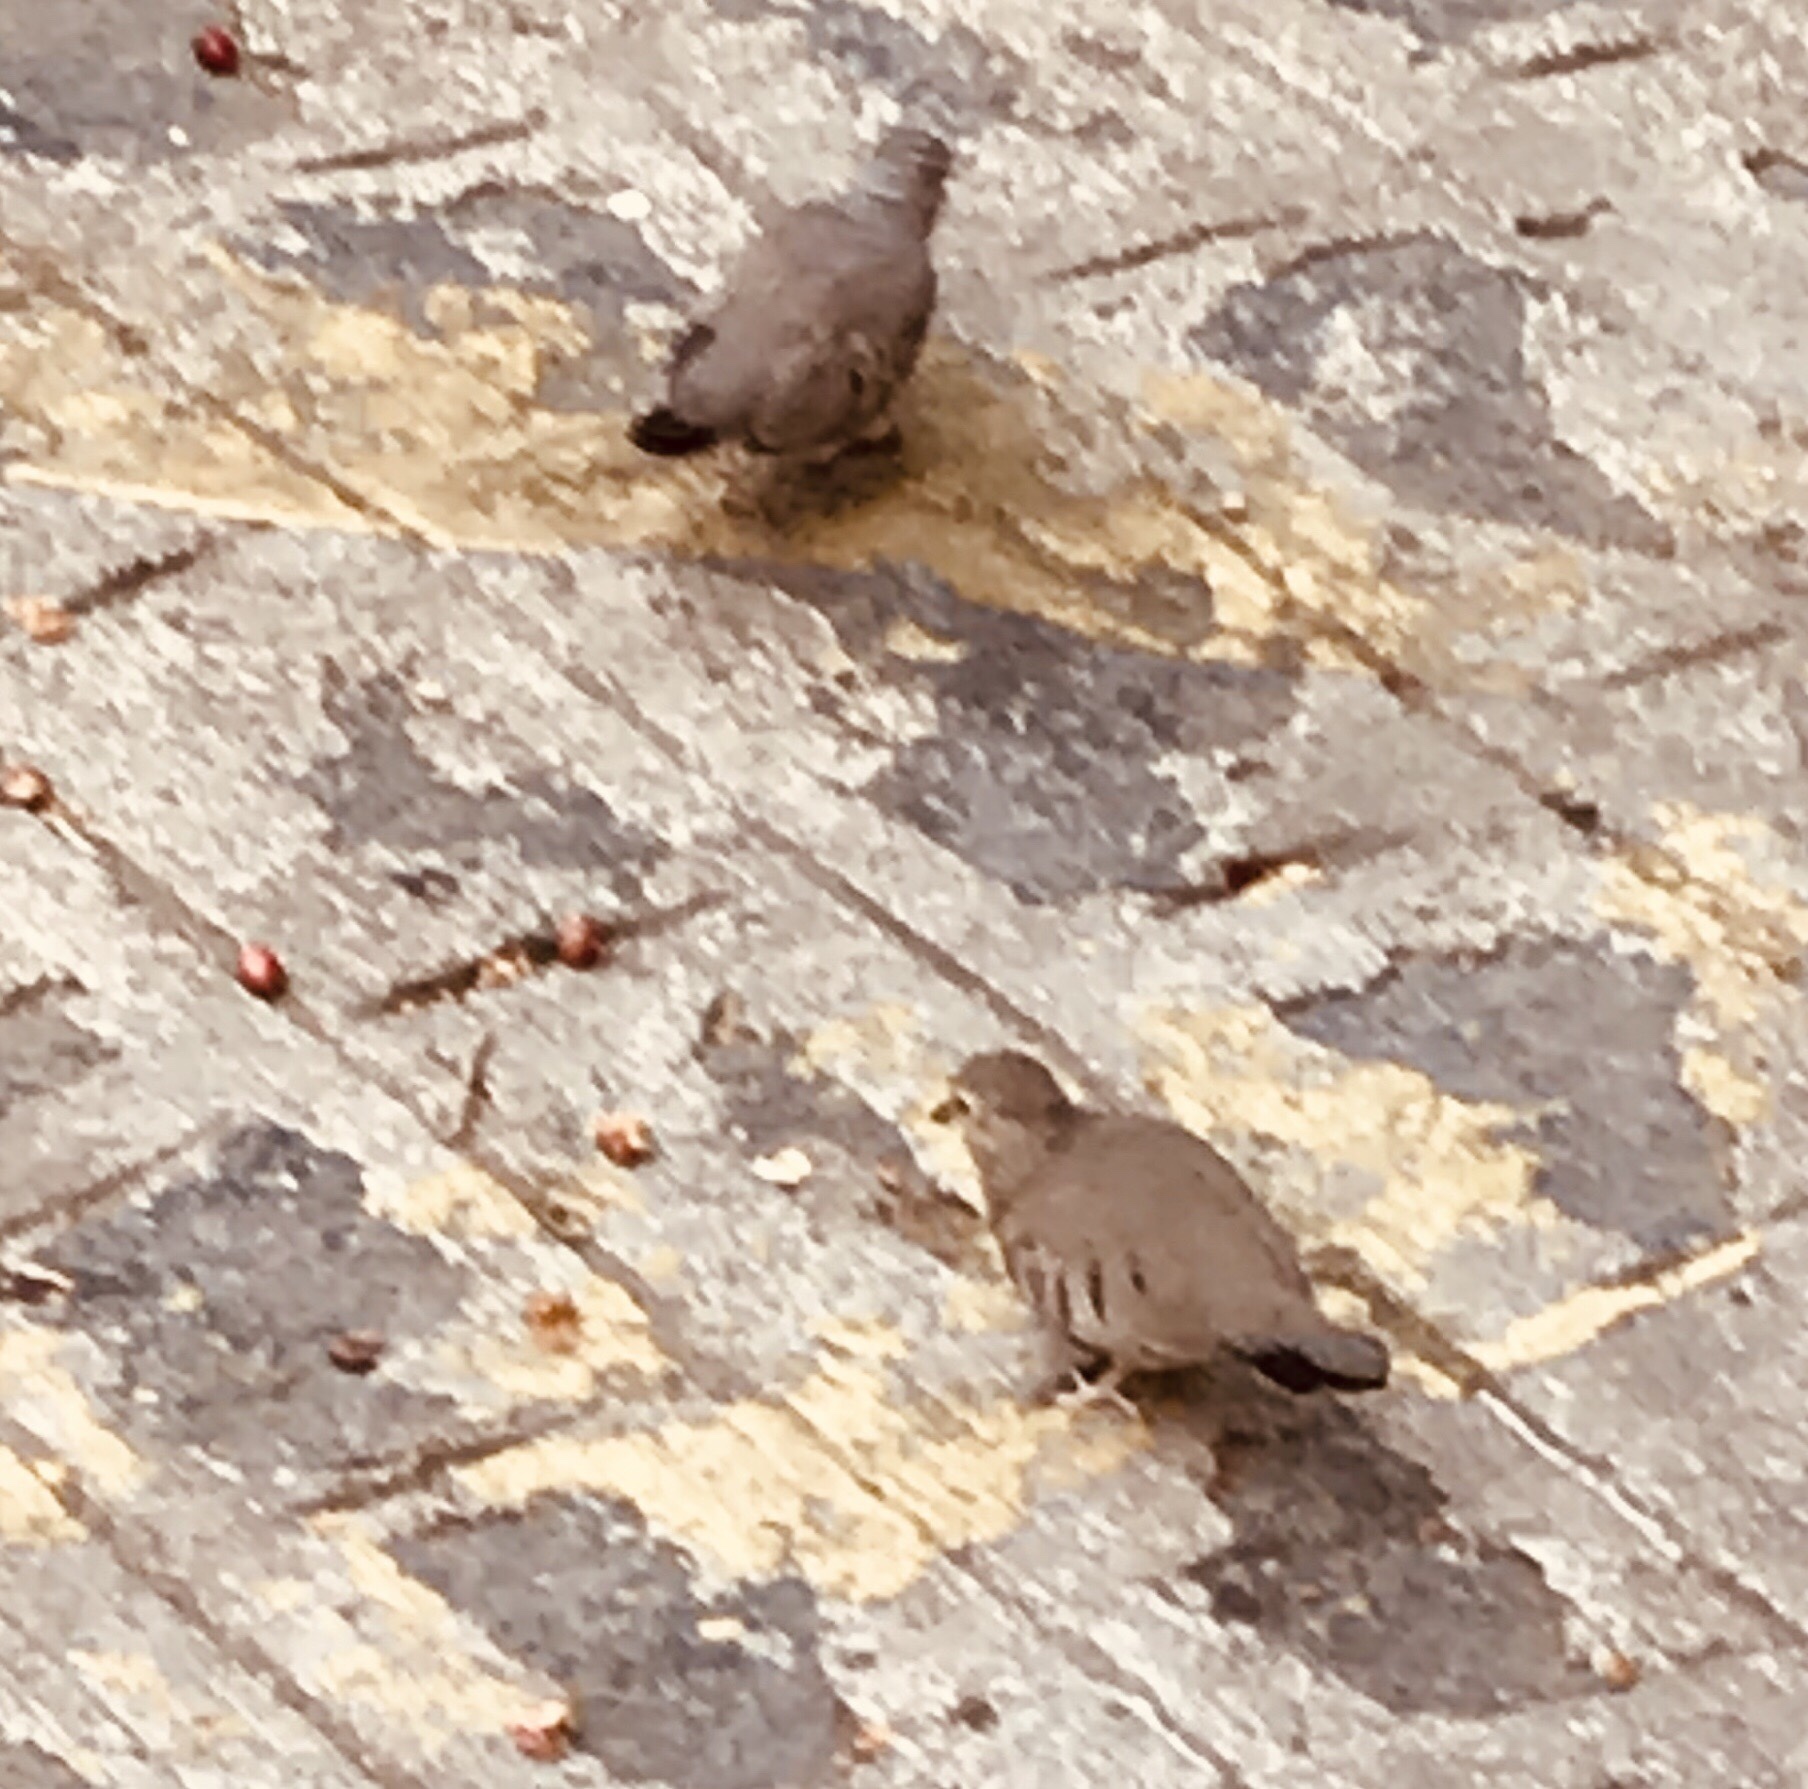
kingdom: Animalia
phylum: Chordata
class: Aves
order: Columbiformes
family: Columbidae
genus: Columbina
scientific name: Columbina passerina
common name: Common ground-dove
